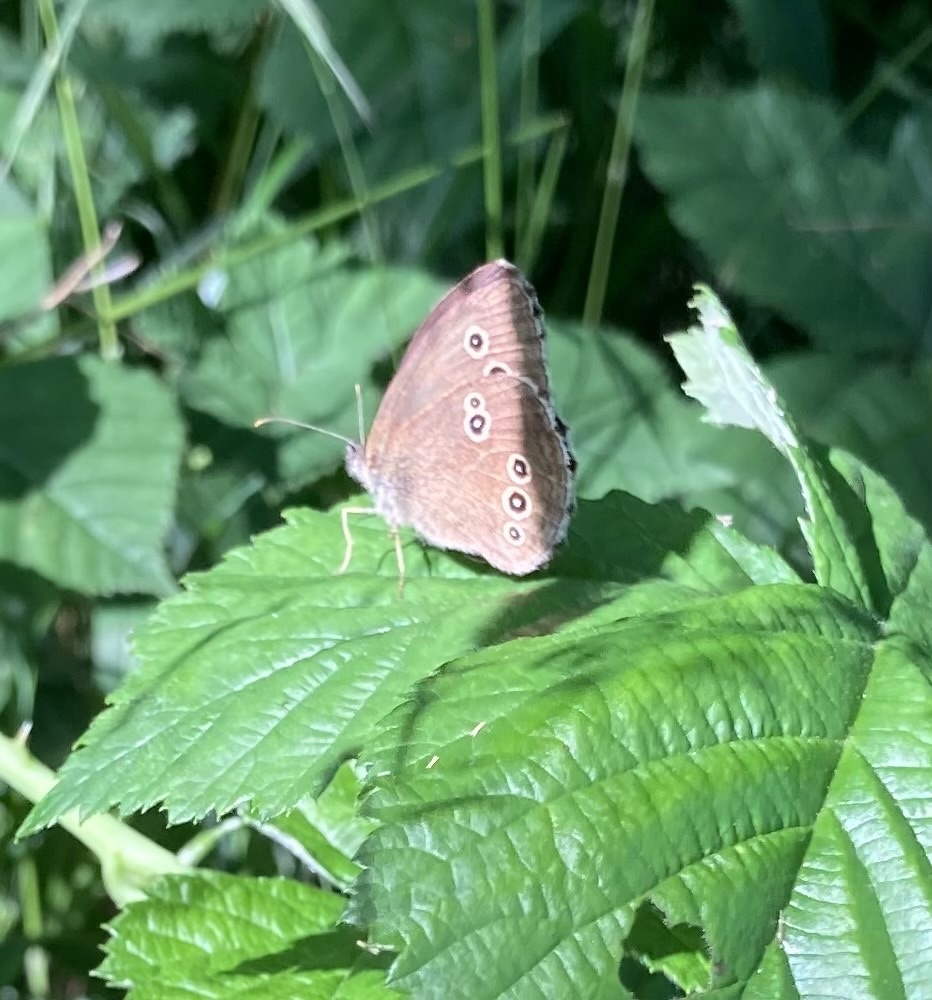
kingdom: Animalia
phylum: Arthropoda
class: Insecta
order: Lepidoptera
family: Nymphalidae
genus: Aphantopus
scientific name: Aphantopus hyperantus
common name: Ringlet
